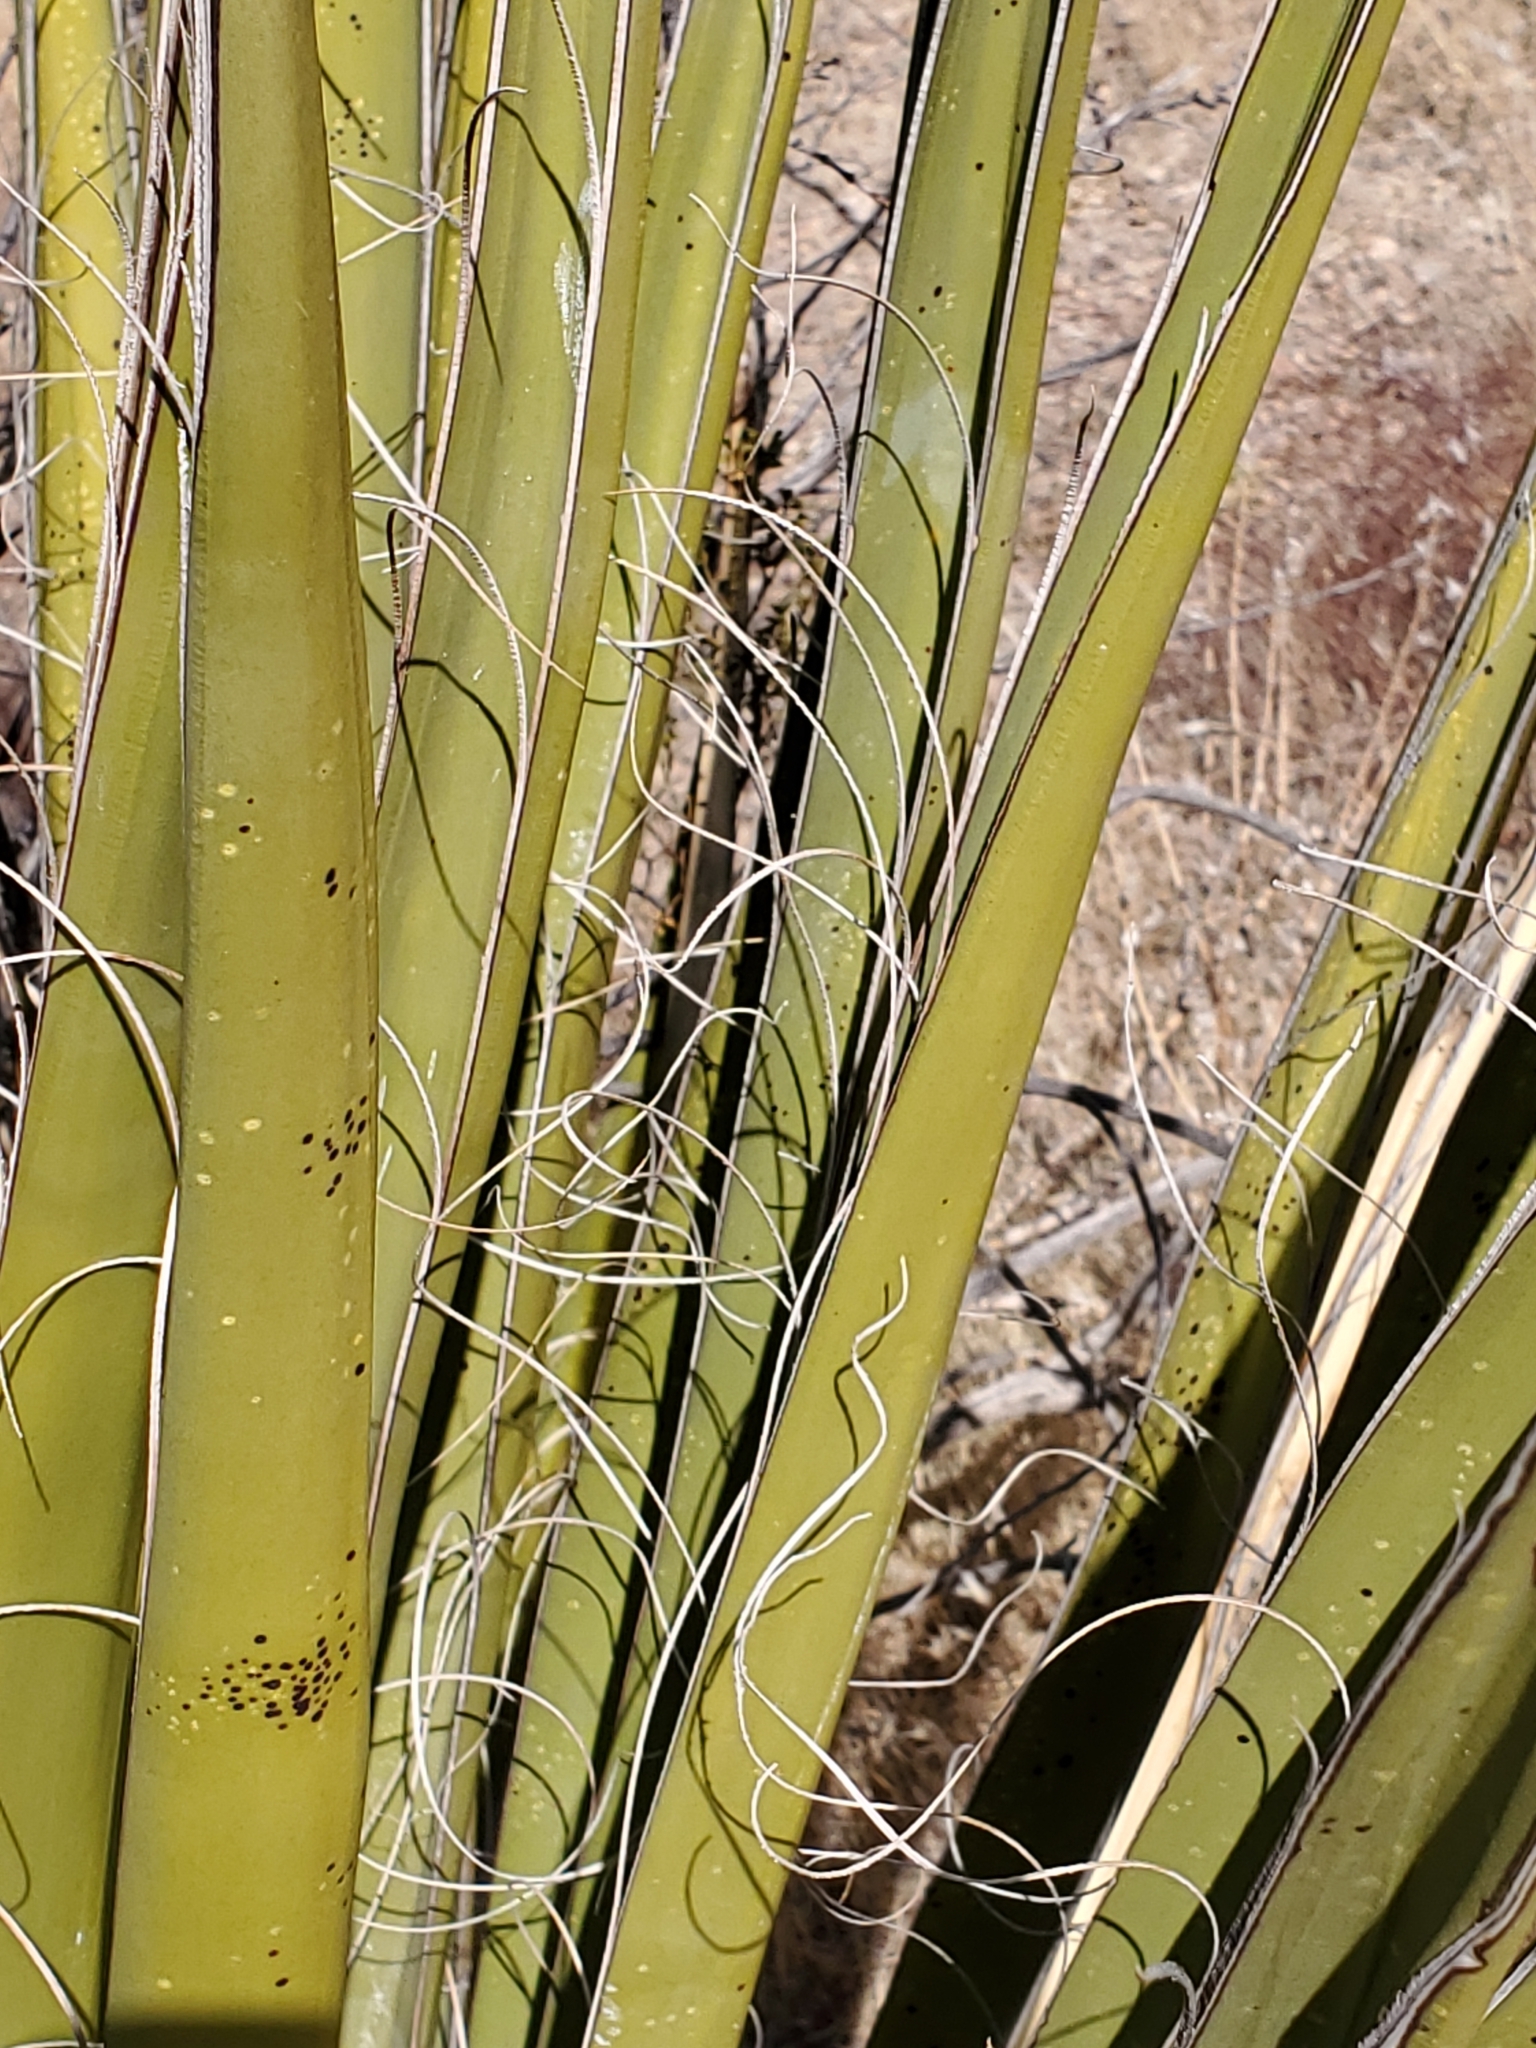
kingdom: Plantae
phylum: Tracheophyta
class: Liliopsida
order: Asparagales
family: Asparagaceae
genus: Yucca
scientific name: Yucca schidigera
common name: Mojave yucca
